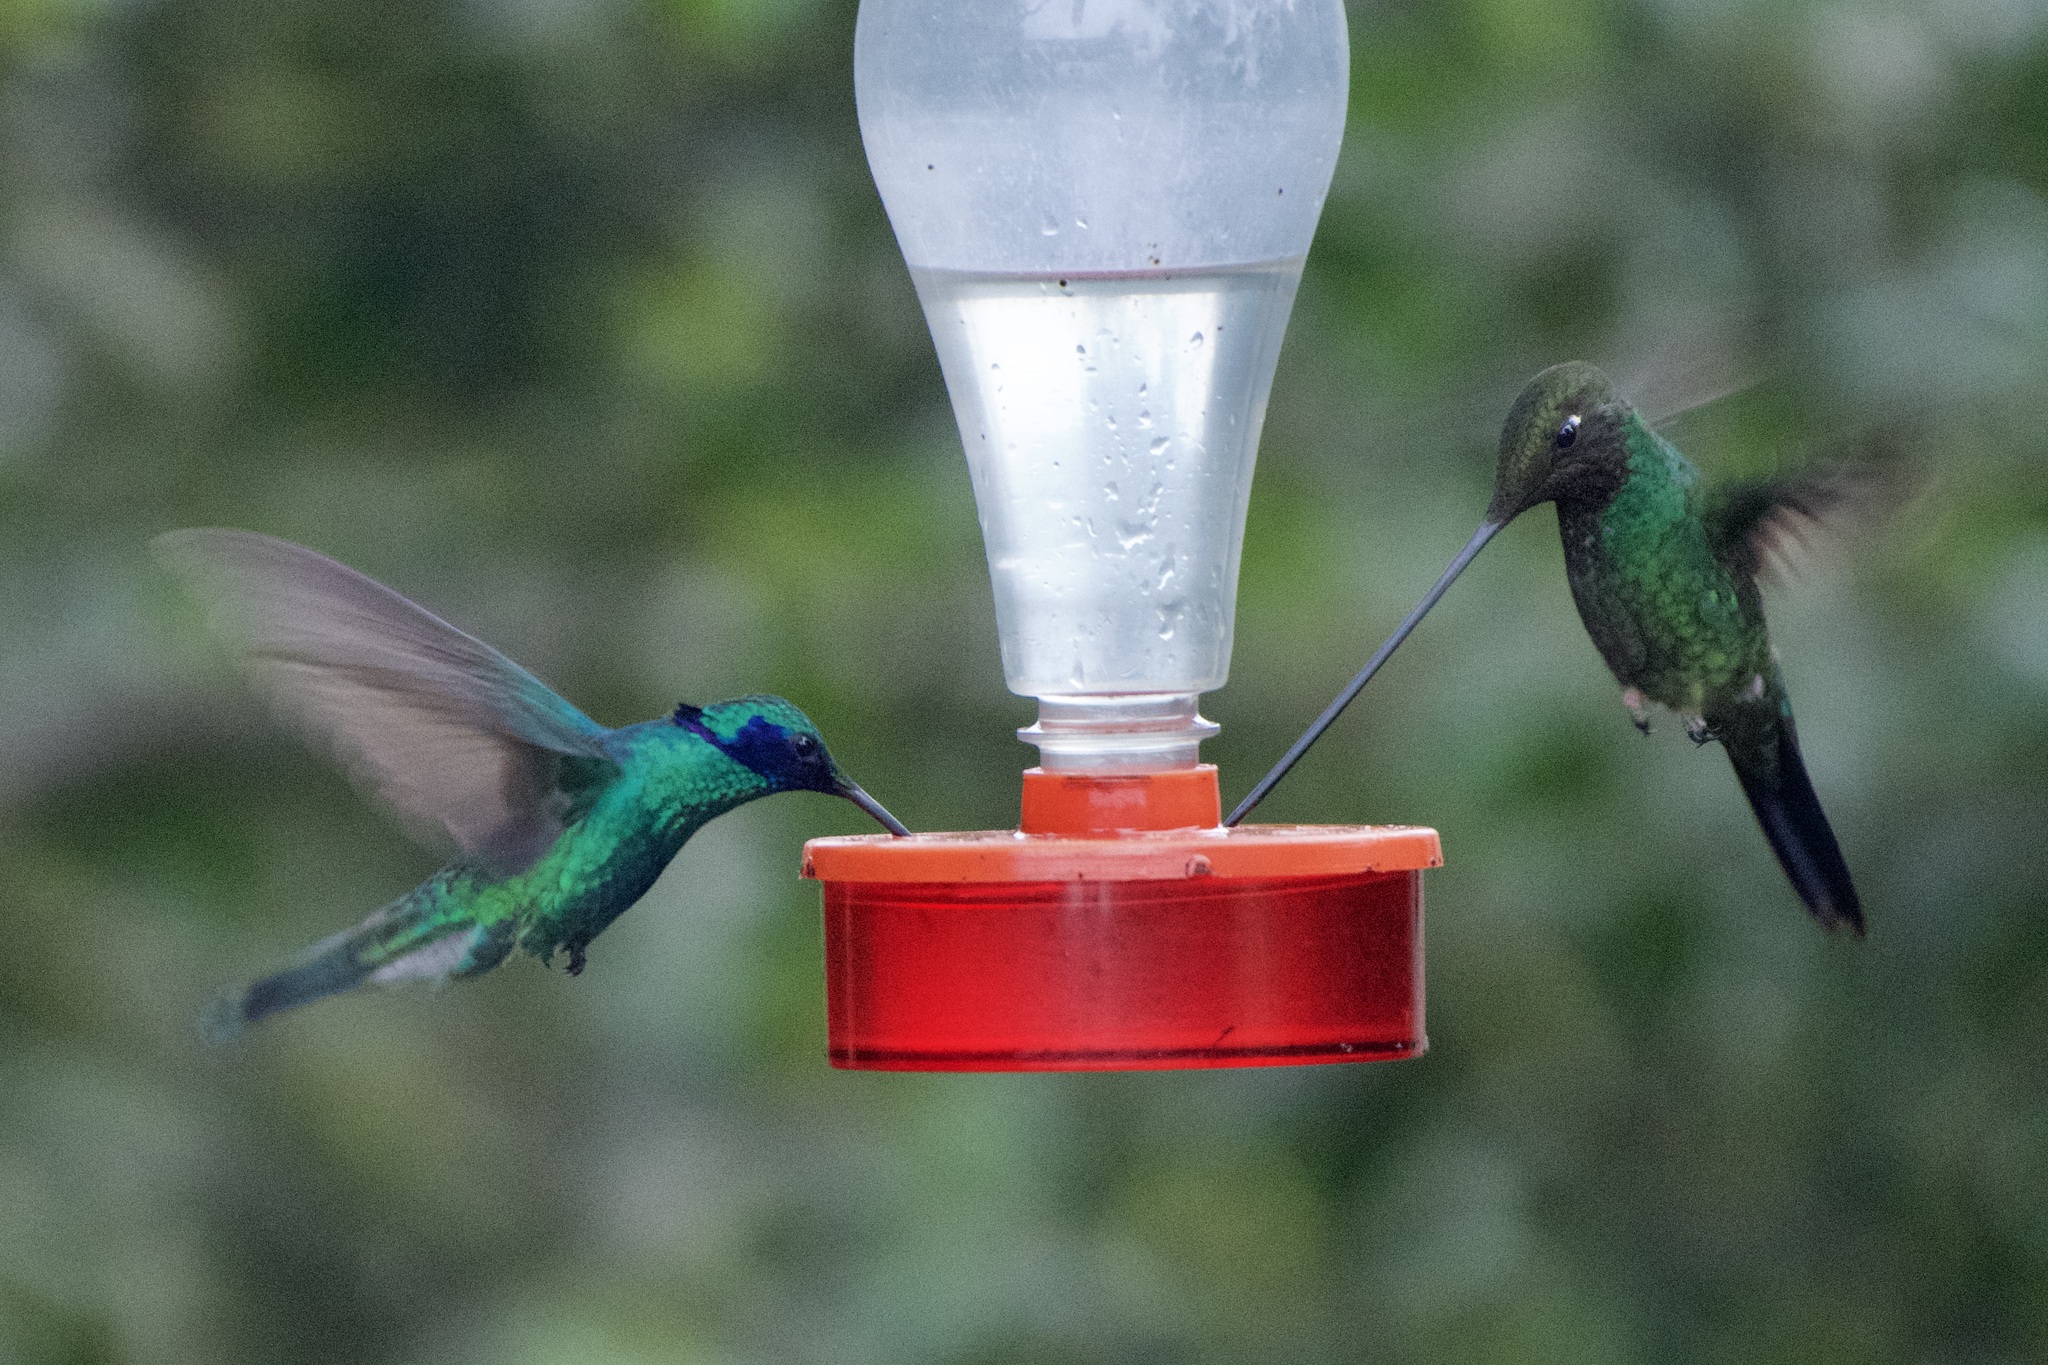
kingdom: Animalia
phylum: Chordata
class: Aves
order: Apodiformes
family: Trochilidae
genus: Colibri
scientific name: Colibri coruscans
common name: Sparkling violetear
